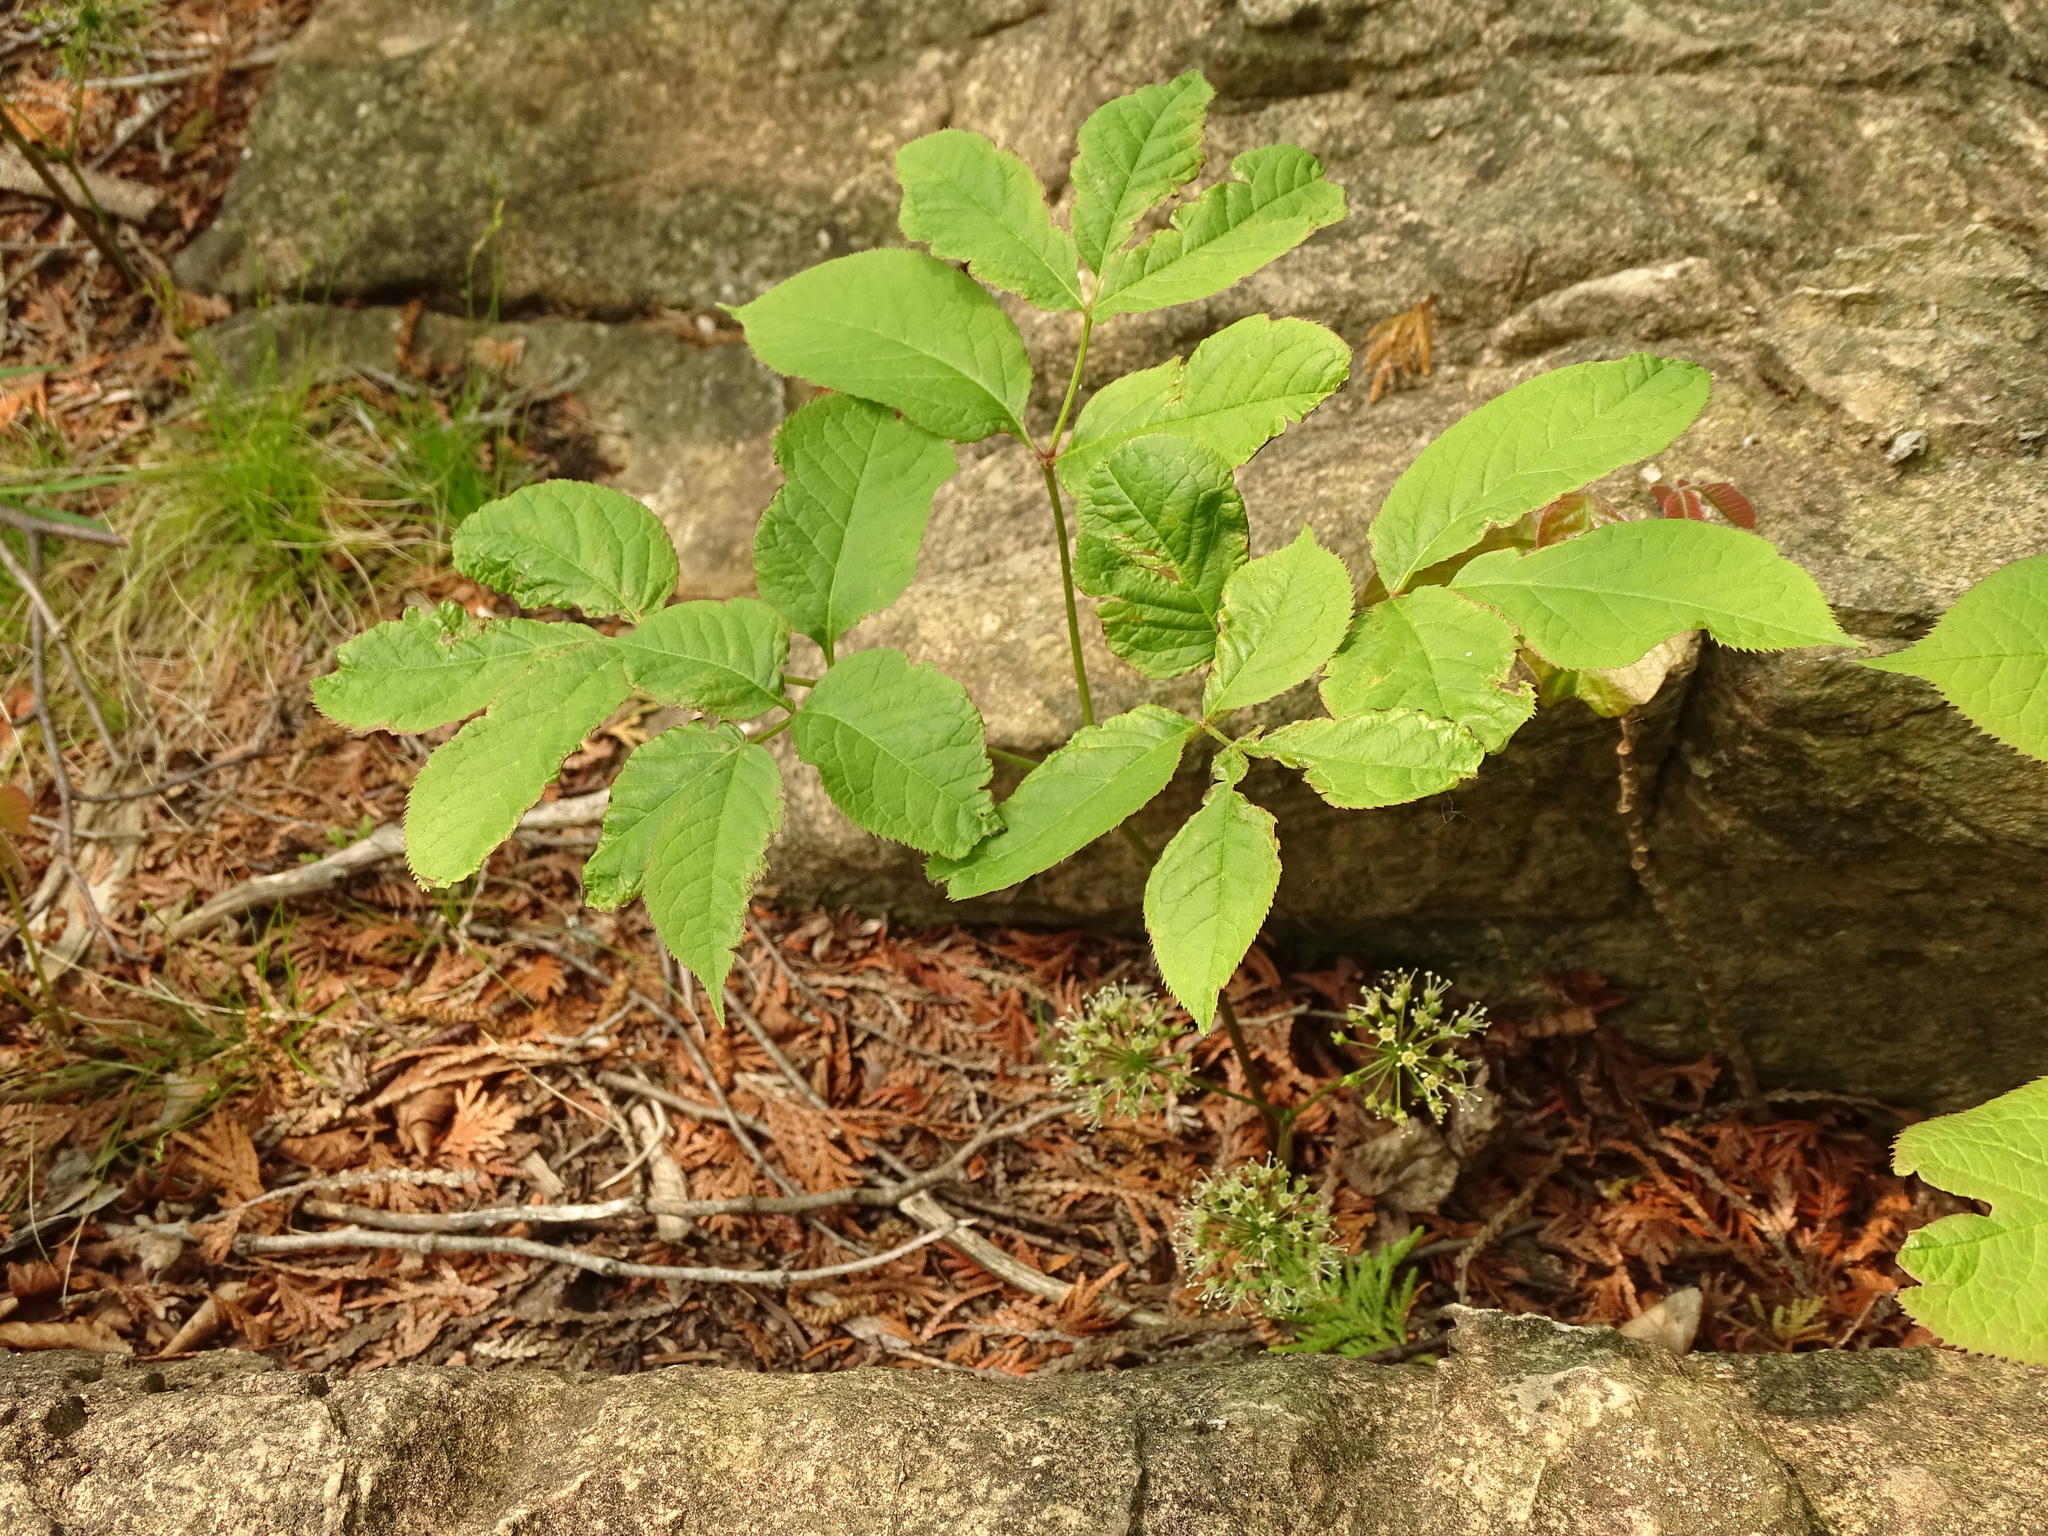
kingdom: Plantae
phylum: Tracheophyta
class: Magnoliopsida
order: Apiales
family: Araliaceae
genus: Aralia
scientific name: Aralia nudicaulis
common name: Wild sarsaparilla
